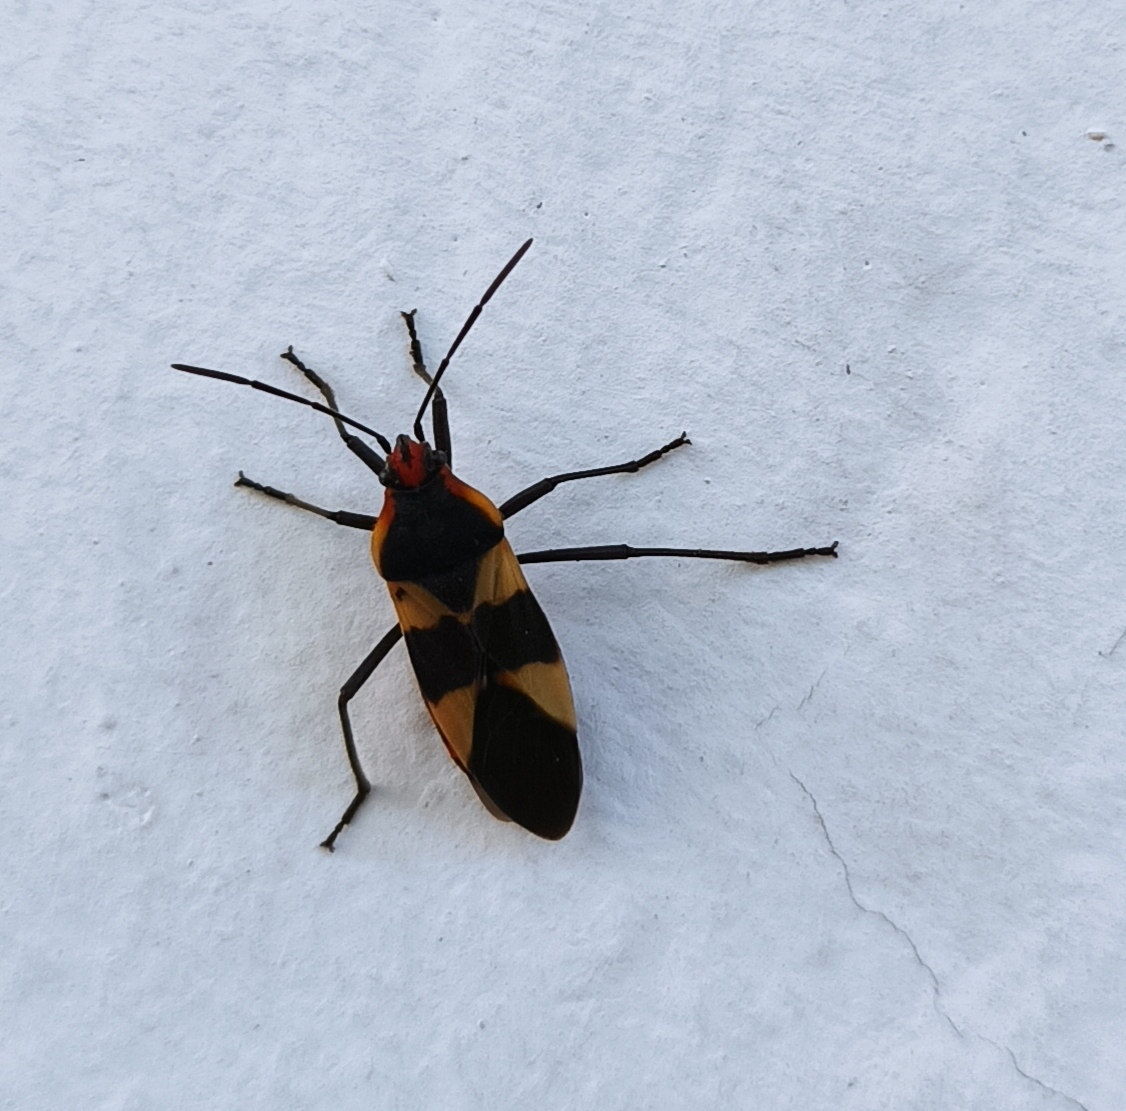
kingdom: Animalia
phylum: Arthropoda
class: Insecta
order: Hemiptera
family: Lygaeidae
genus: Oncopeltus
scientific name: Oncopeltus sandarachatus
